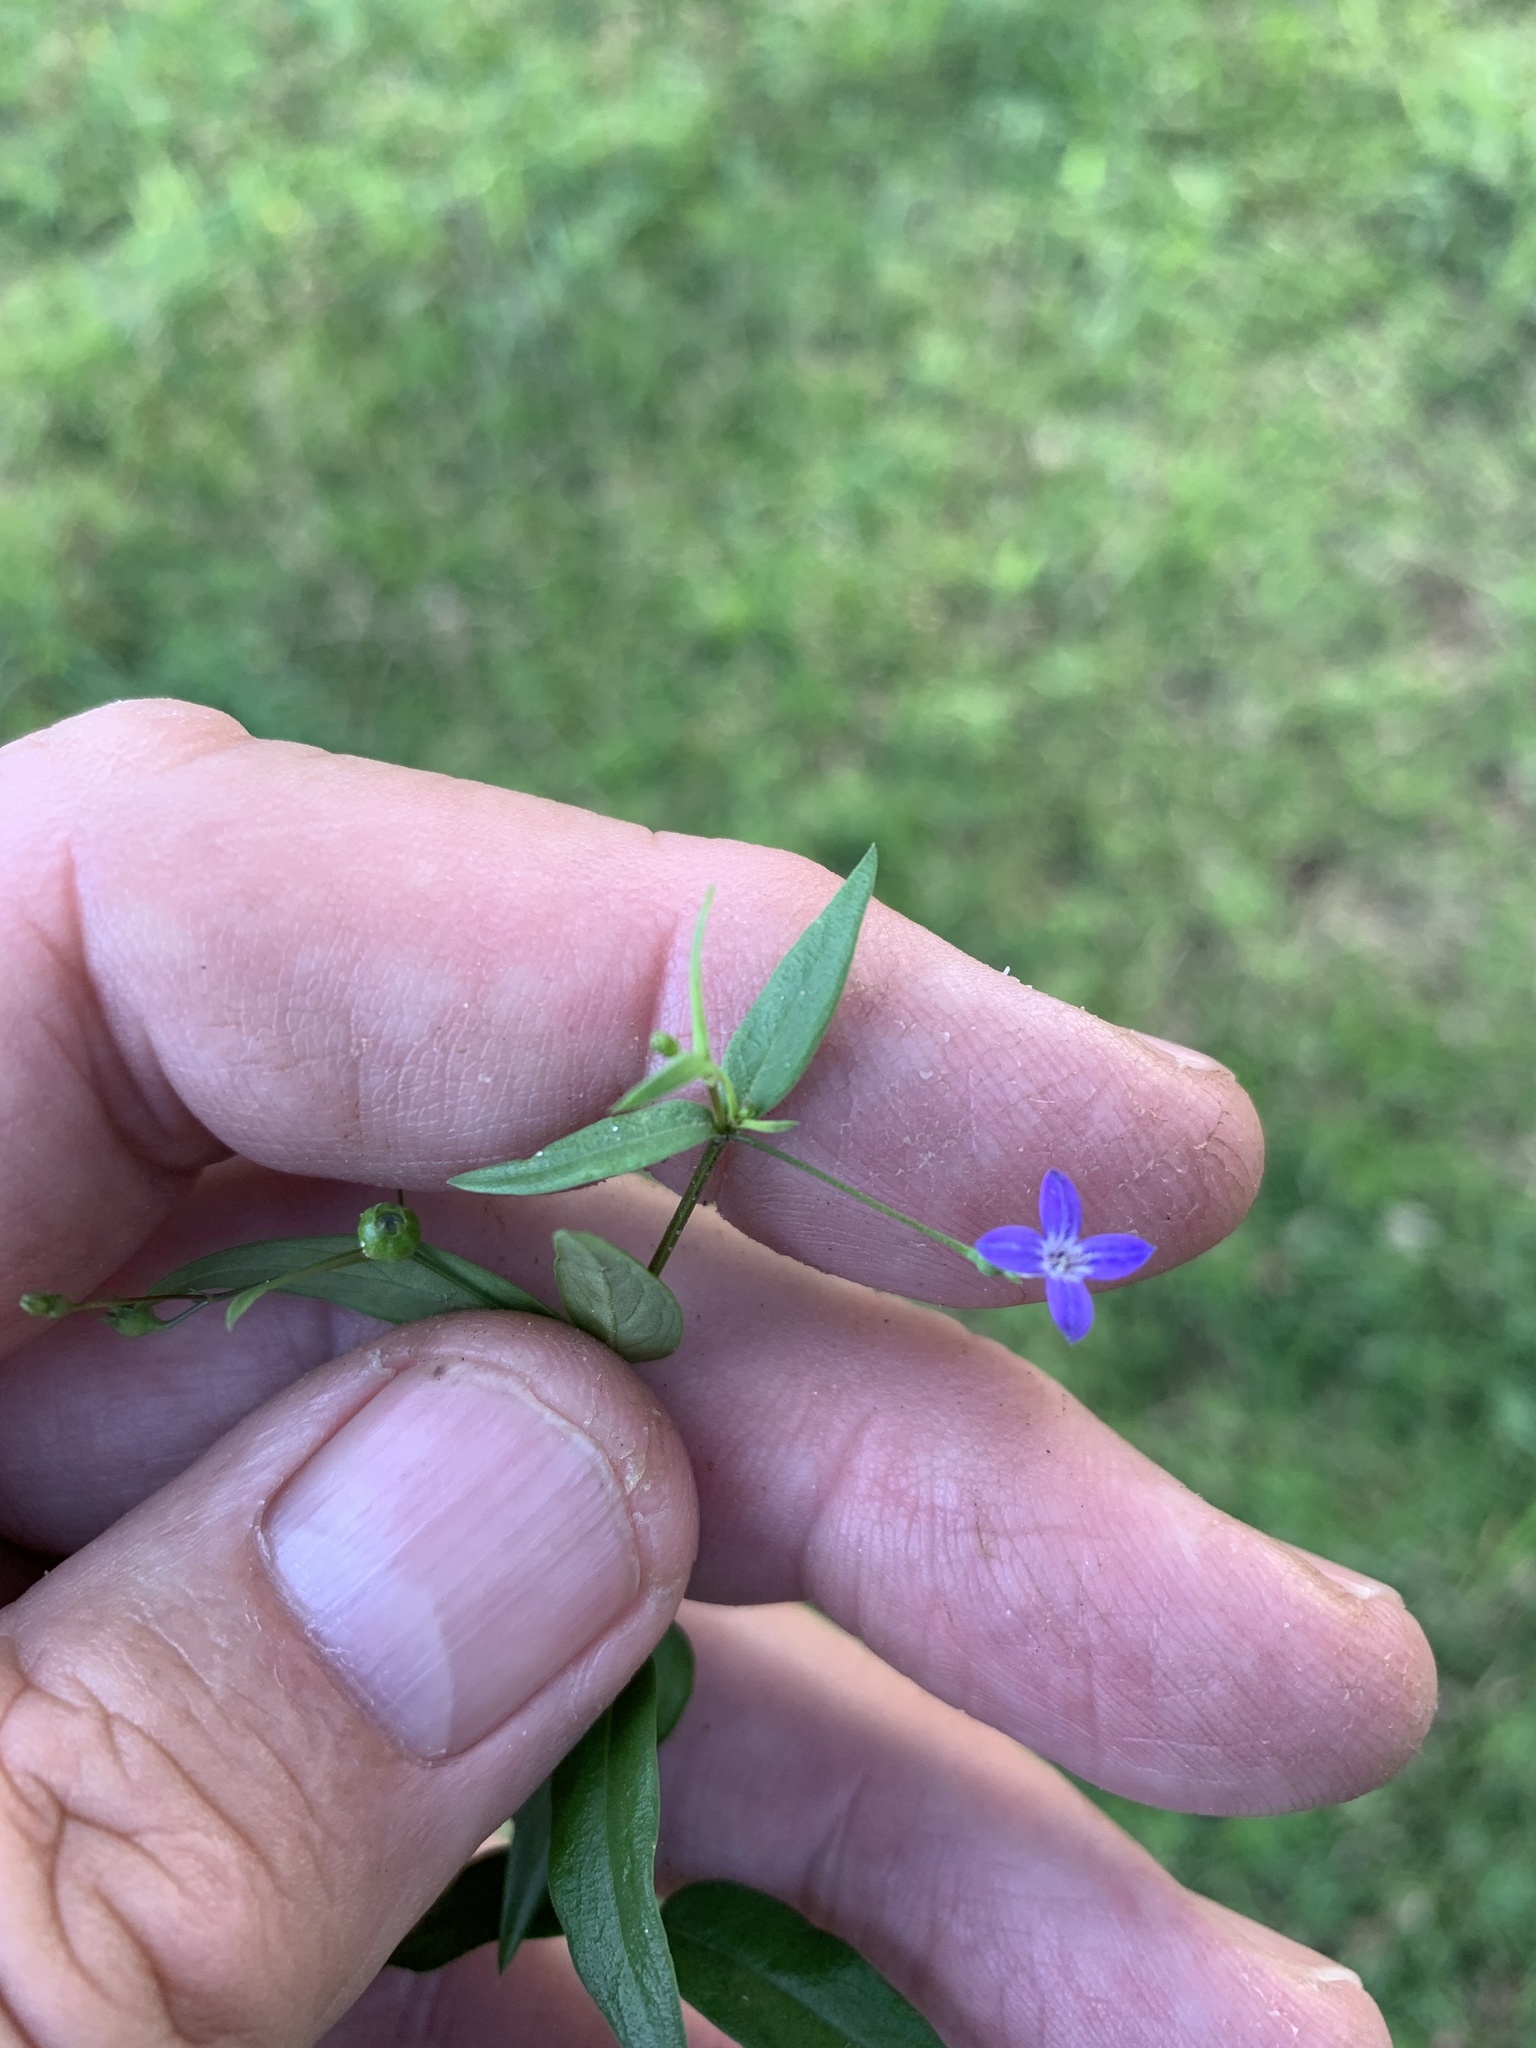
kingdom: Plantae
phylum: Tracheophyta
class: Magnoliopsida
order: Gentianales
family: Rubiaceae
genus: Oldenlandia
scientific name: Oldenlandia affinis
